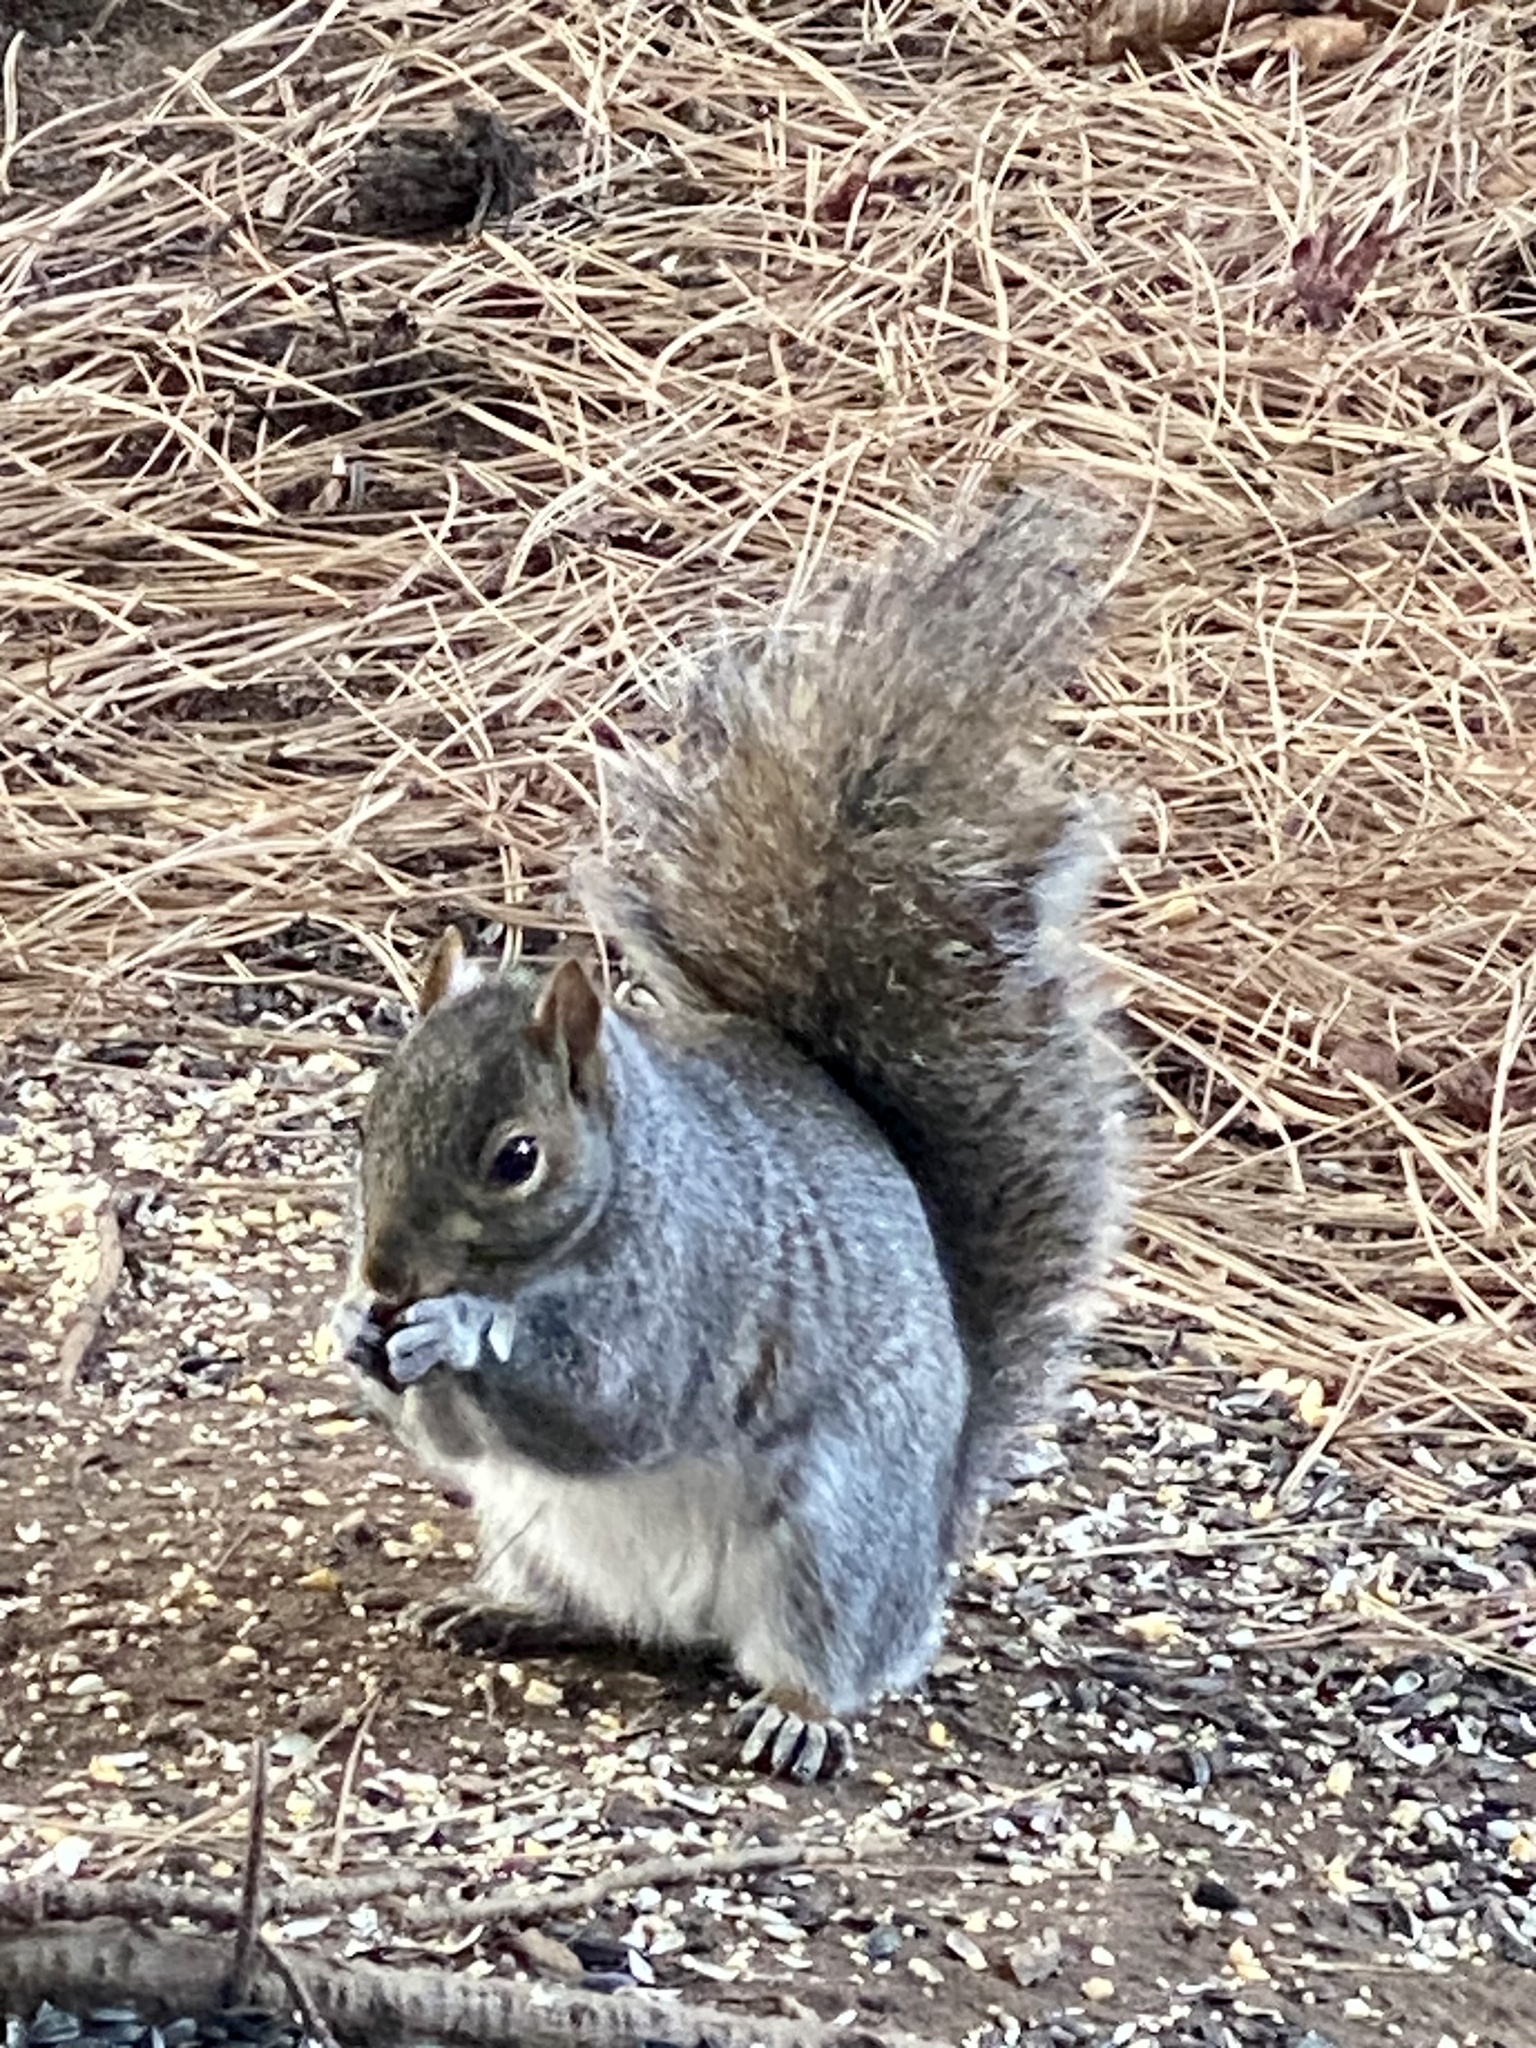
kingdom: Animalia
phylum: Chordata
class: Mammalia
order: Rodentia
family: Sciuridae
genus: Sciurus
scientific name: Sciurus carolinensis
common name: Eastern gray squirrel
